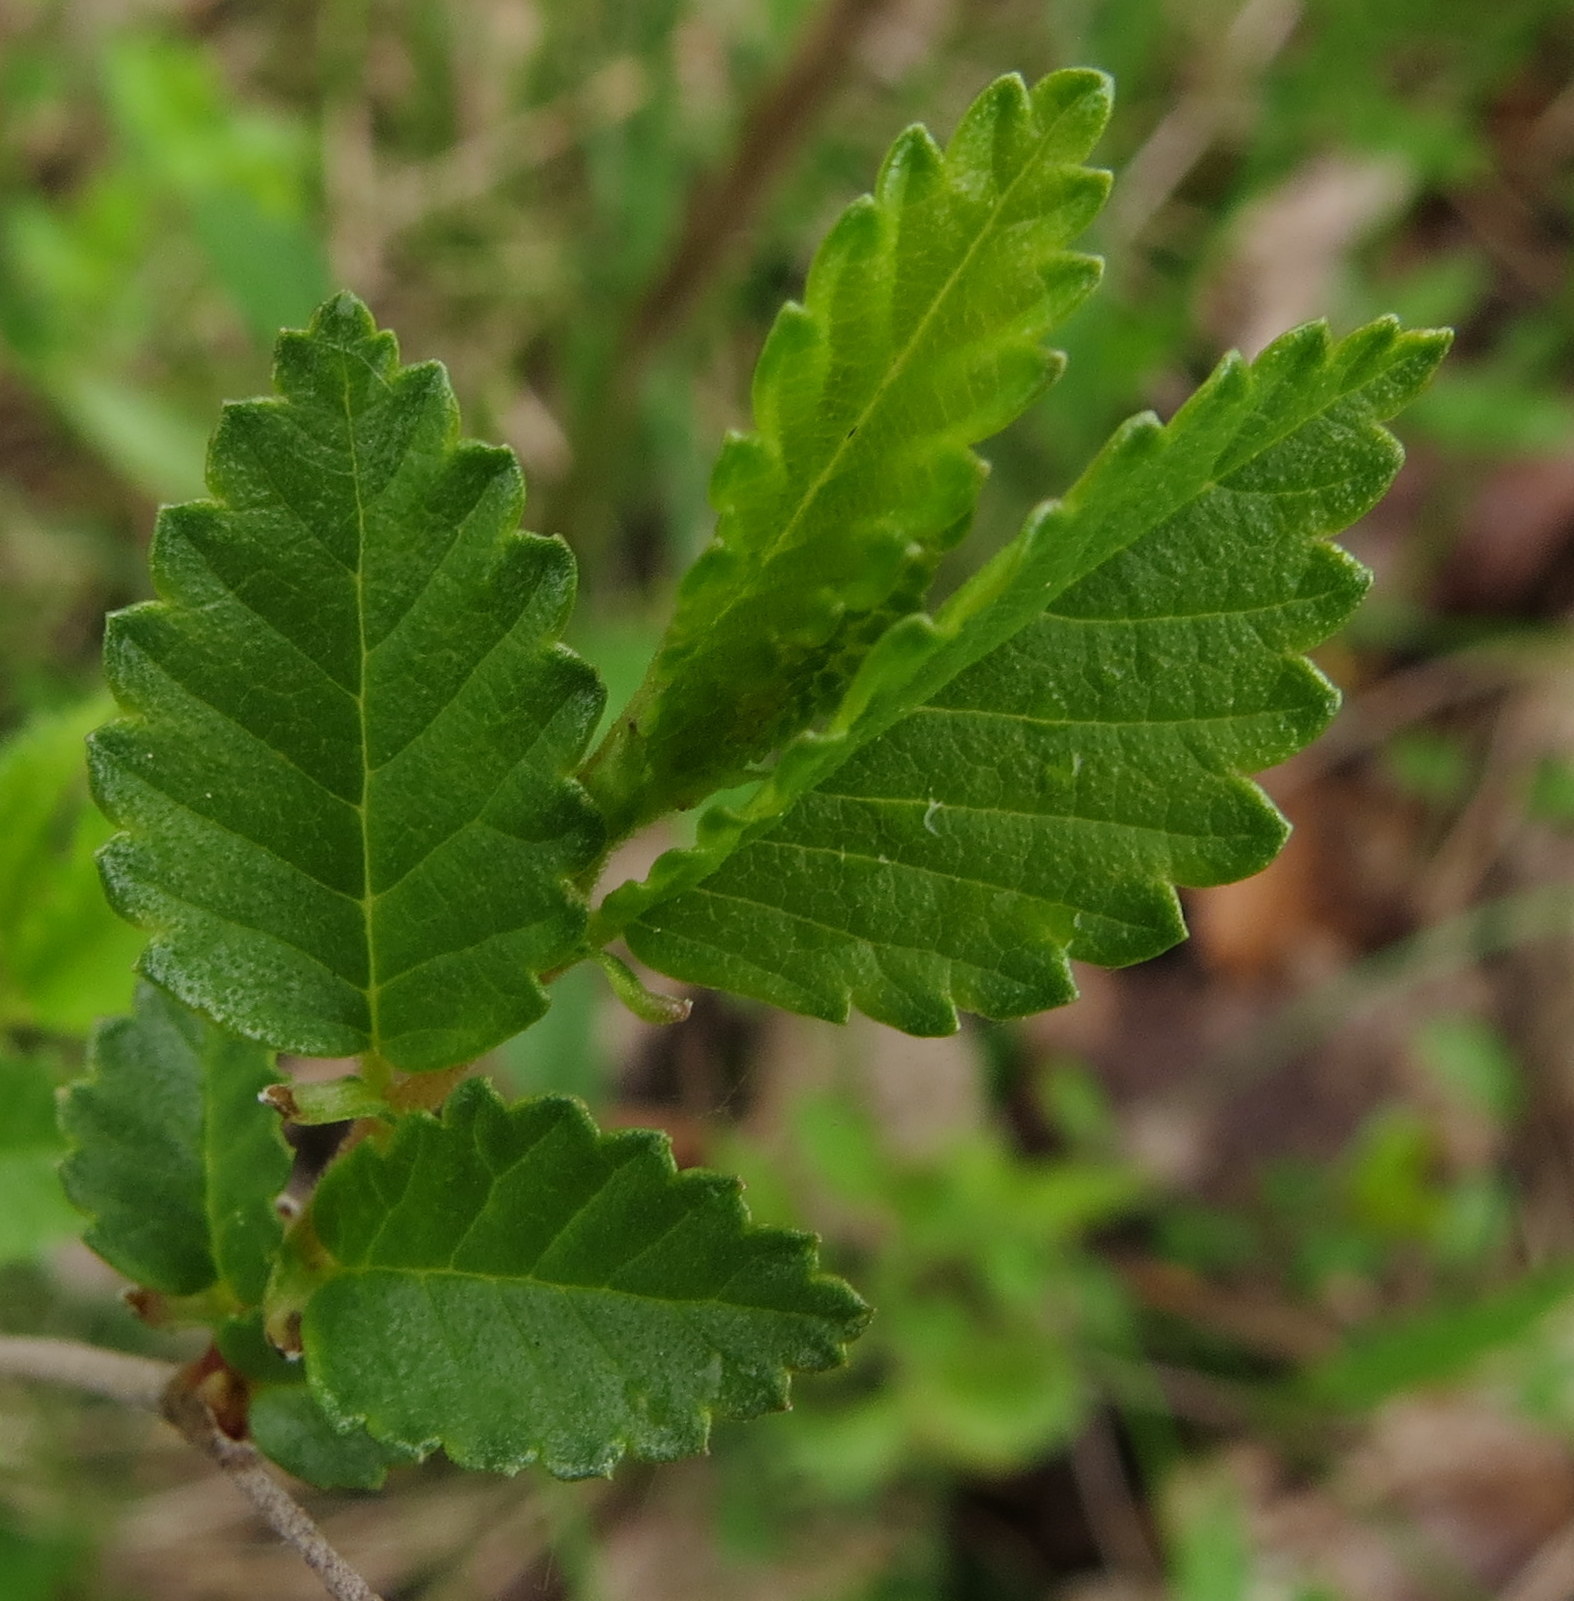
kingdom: Plantae
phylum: Tracheophyta
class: Magnoliopsida
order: Rosales
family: Ulmaceae
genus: Ulmus
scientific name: Ulmus pumila
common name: Siberian elm
